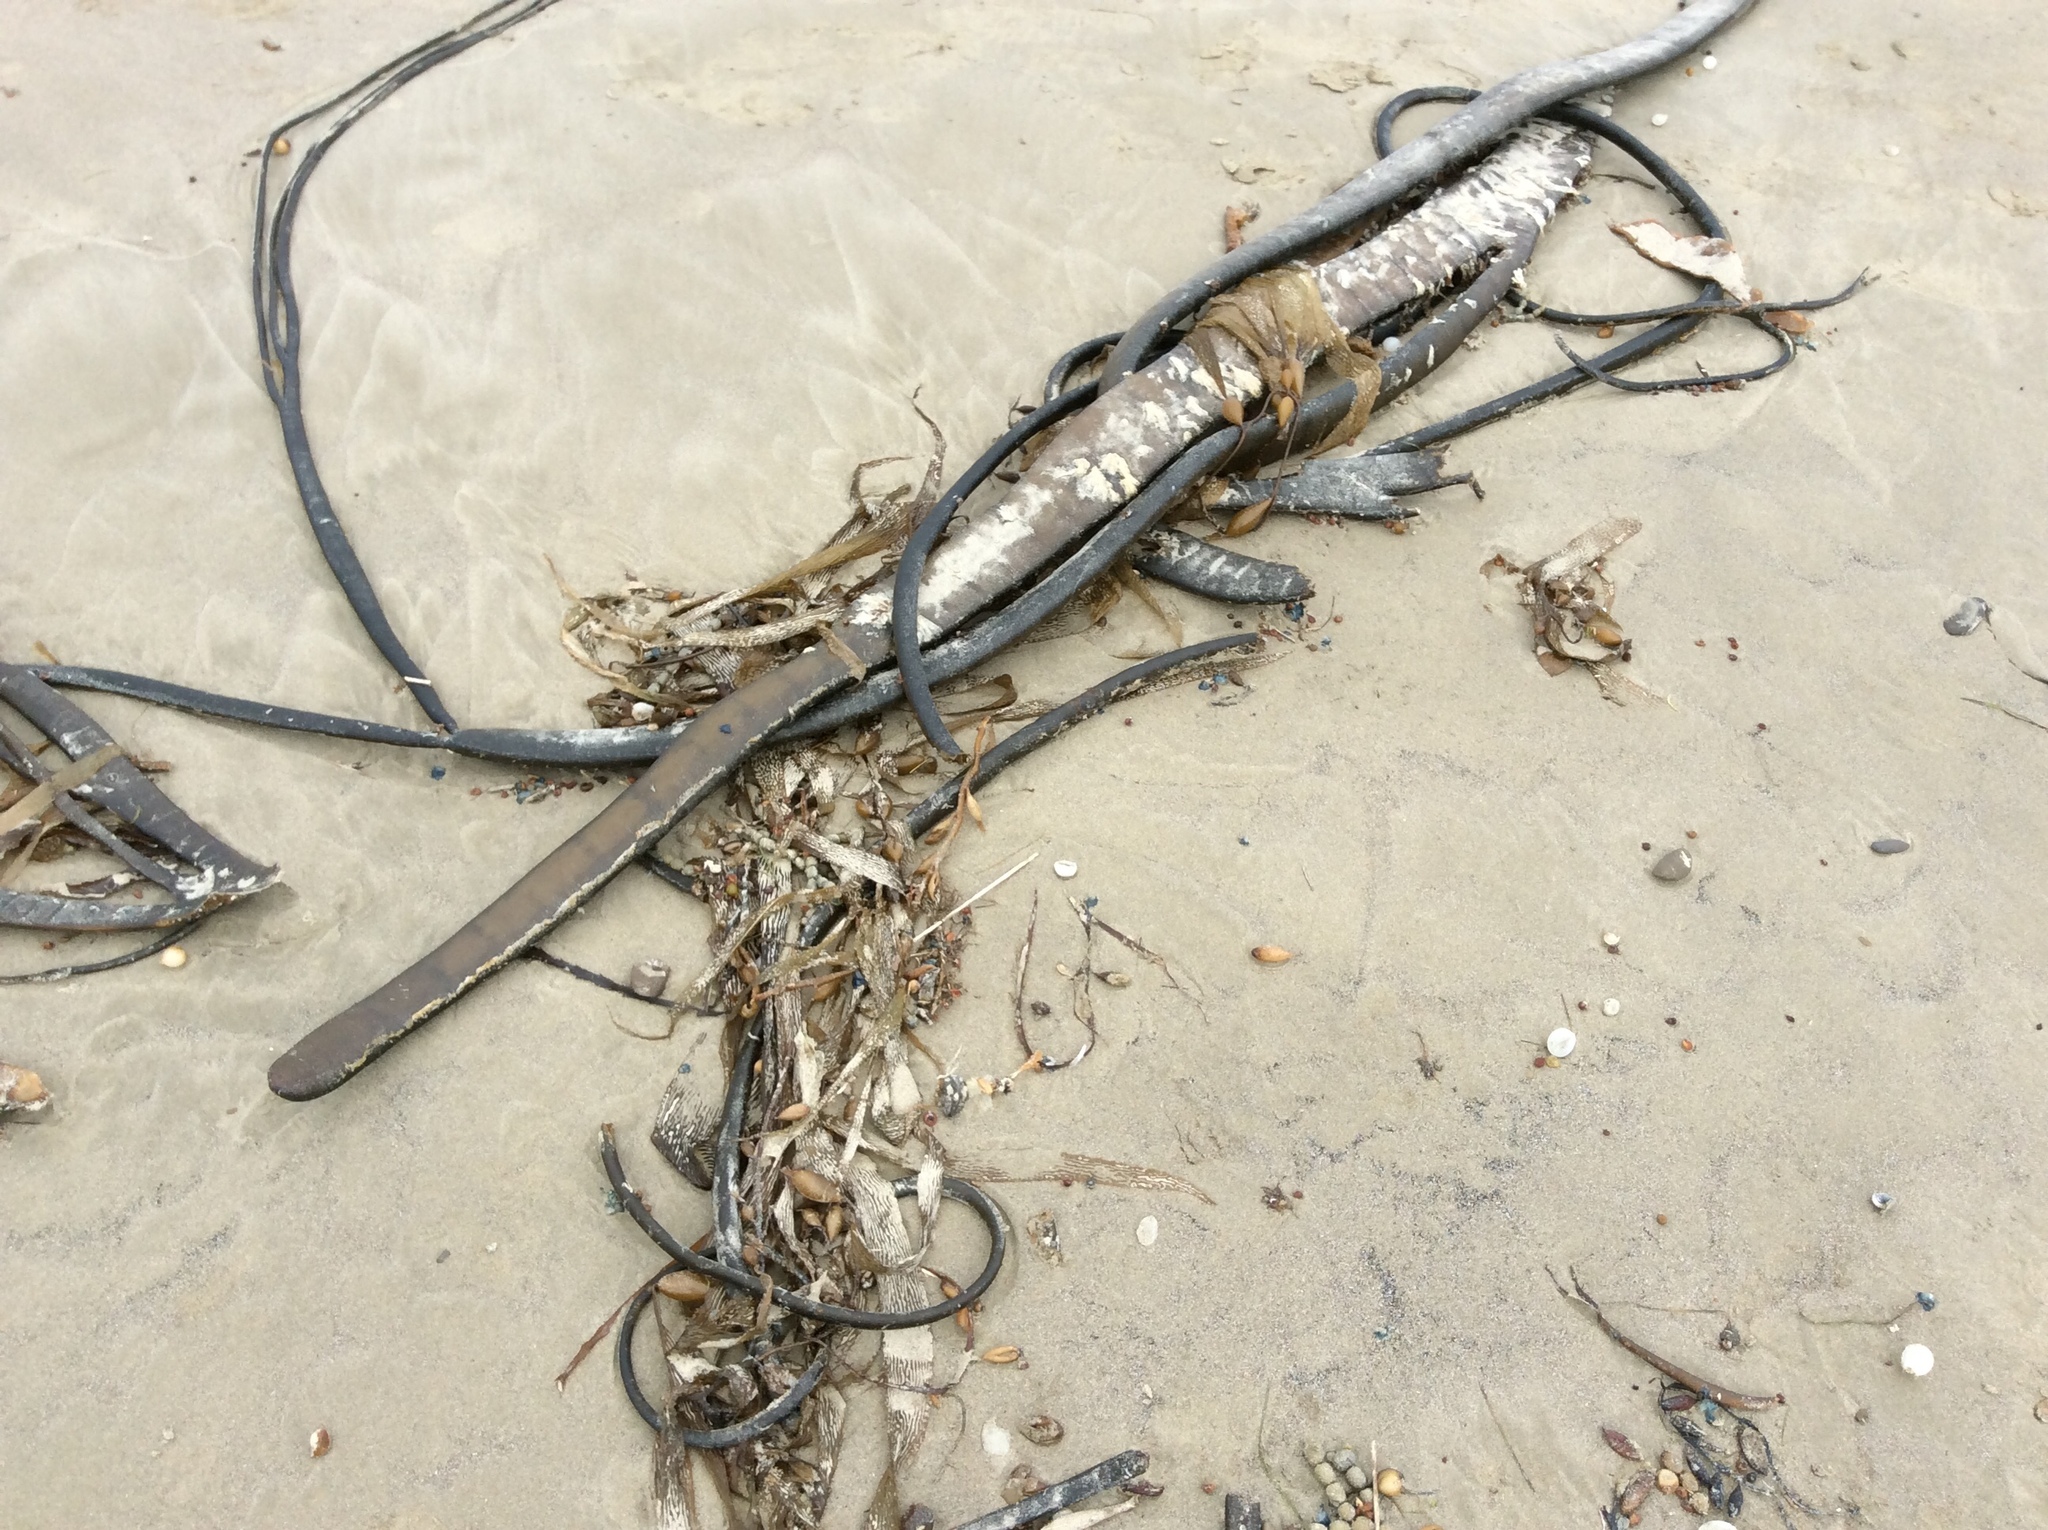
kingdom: Chromista
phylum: Ochrophyta
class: Phaeophyceae
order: Fucales
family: Durvillaeaceae
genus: Durvillaea
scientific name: Durvillaea antarctica
